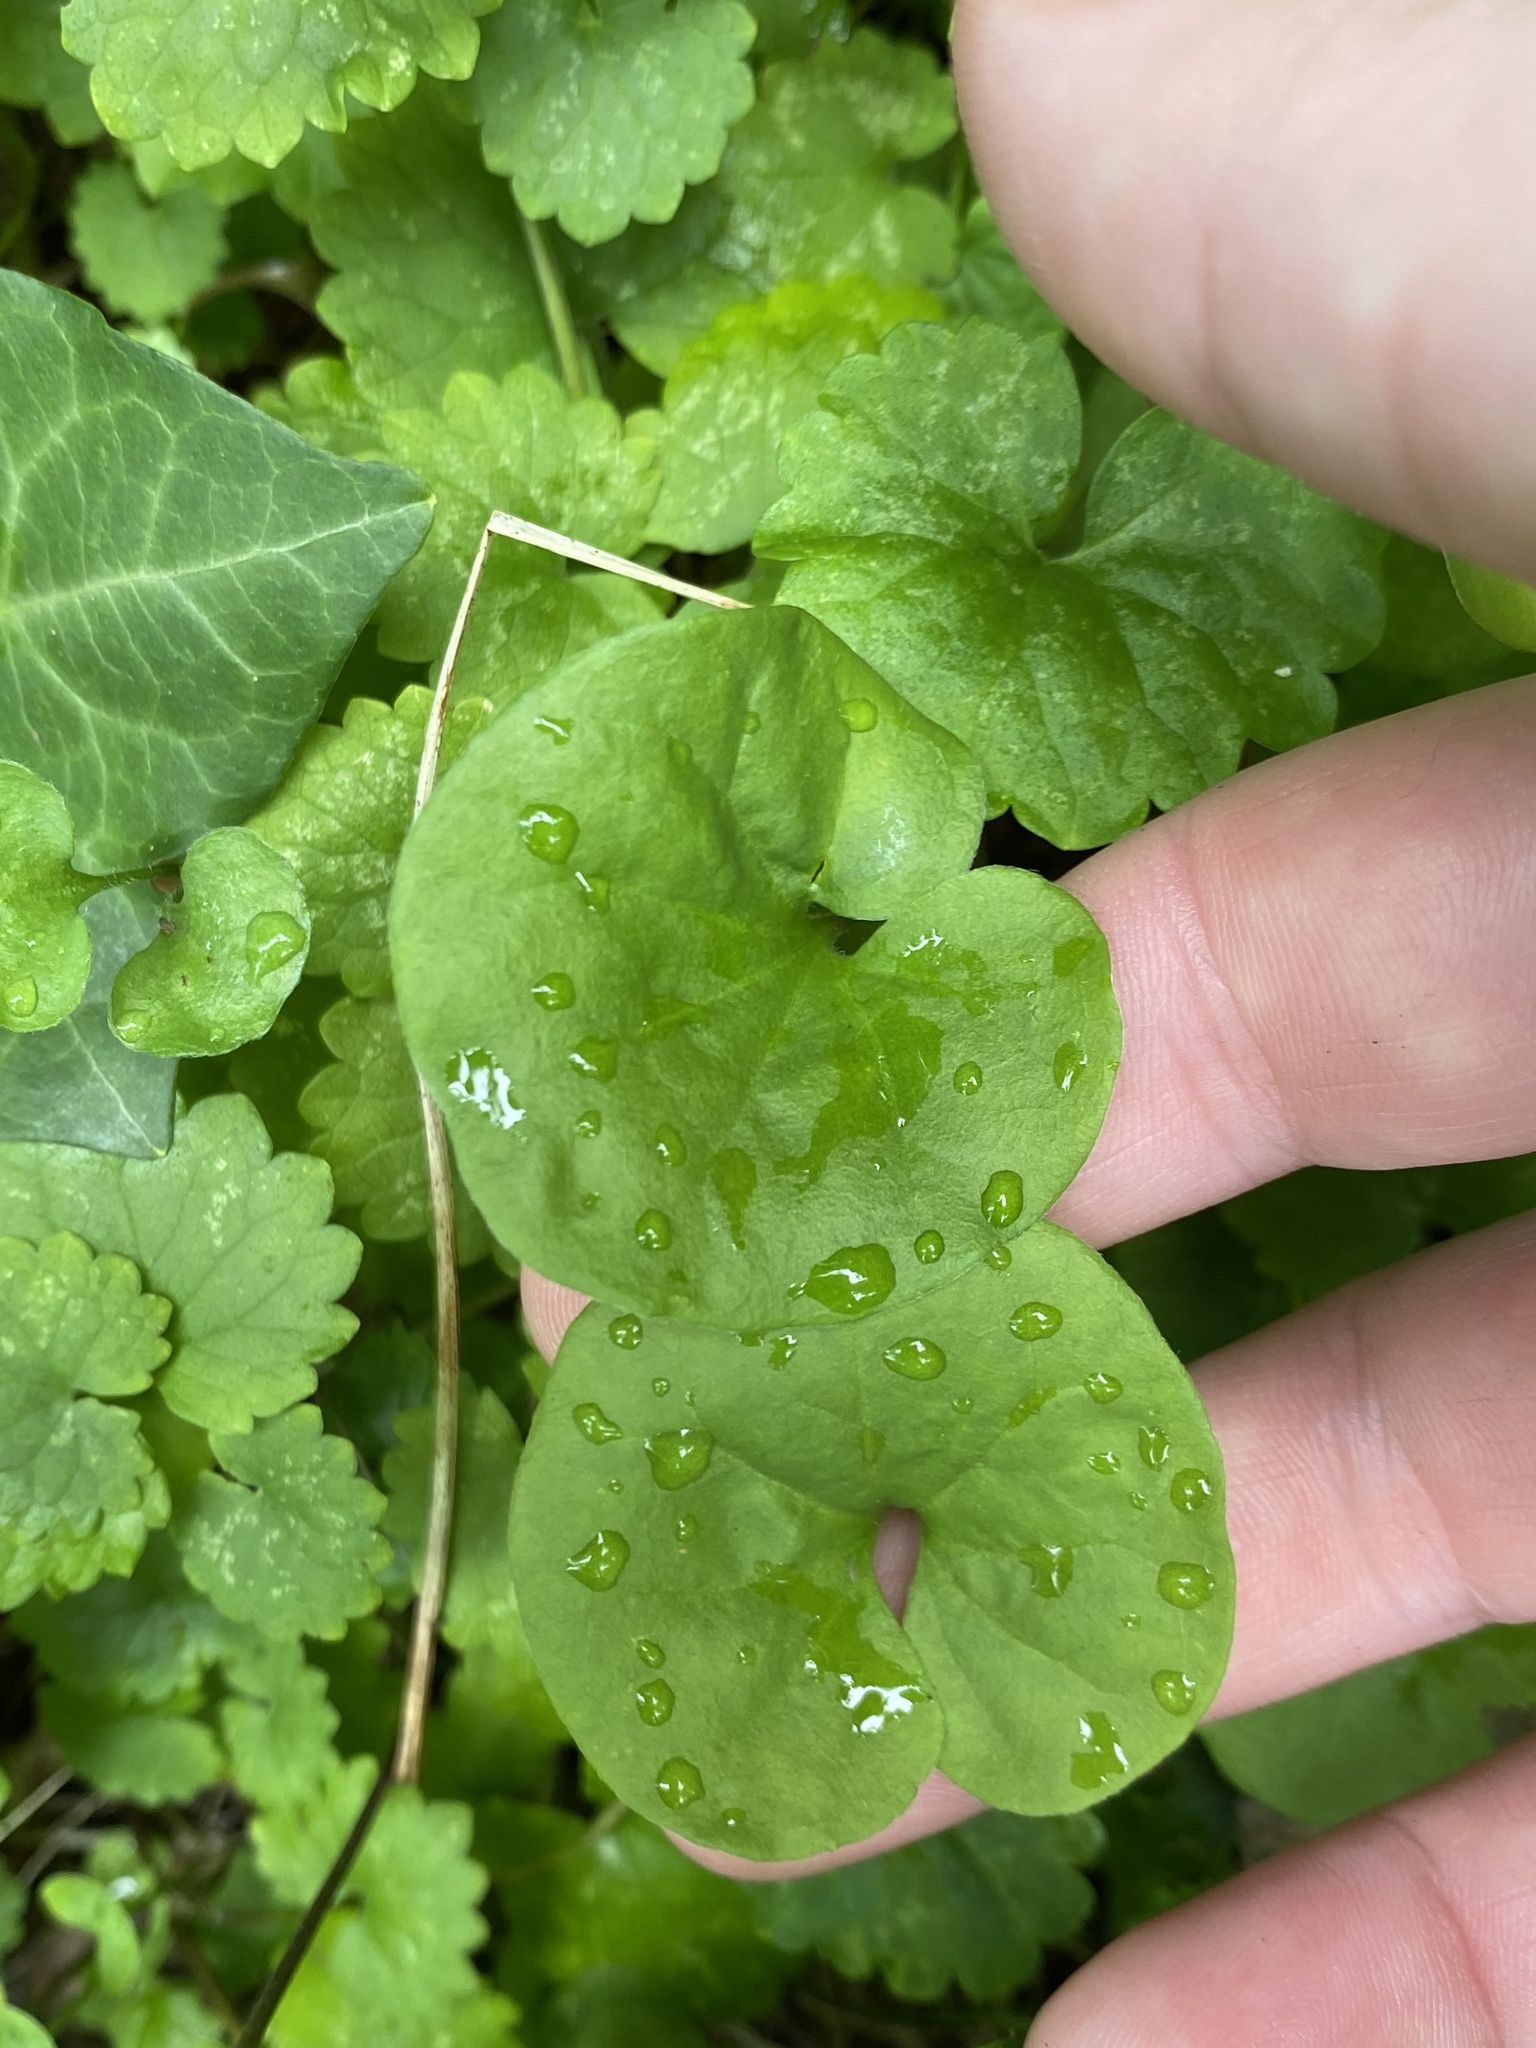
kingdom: Plantae
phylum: Tracheophyta
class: Magnoliopsida
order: Solanales
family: Convolvulaceae
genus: Dichondra
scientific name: Dichondra carolinensis
